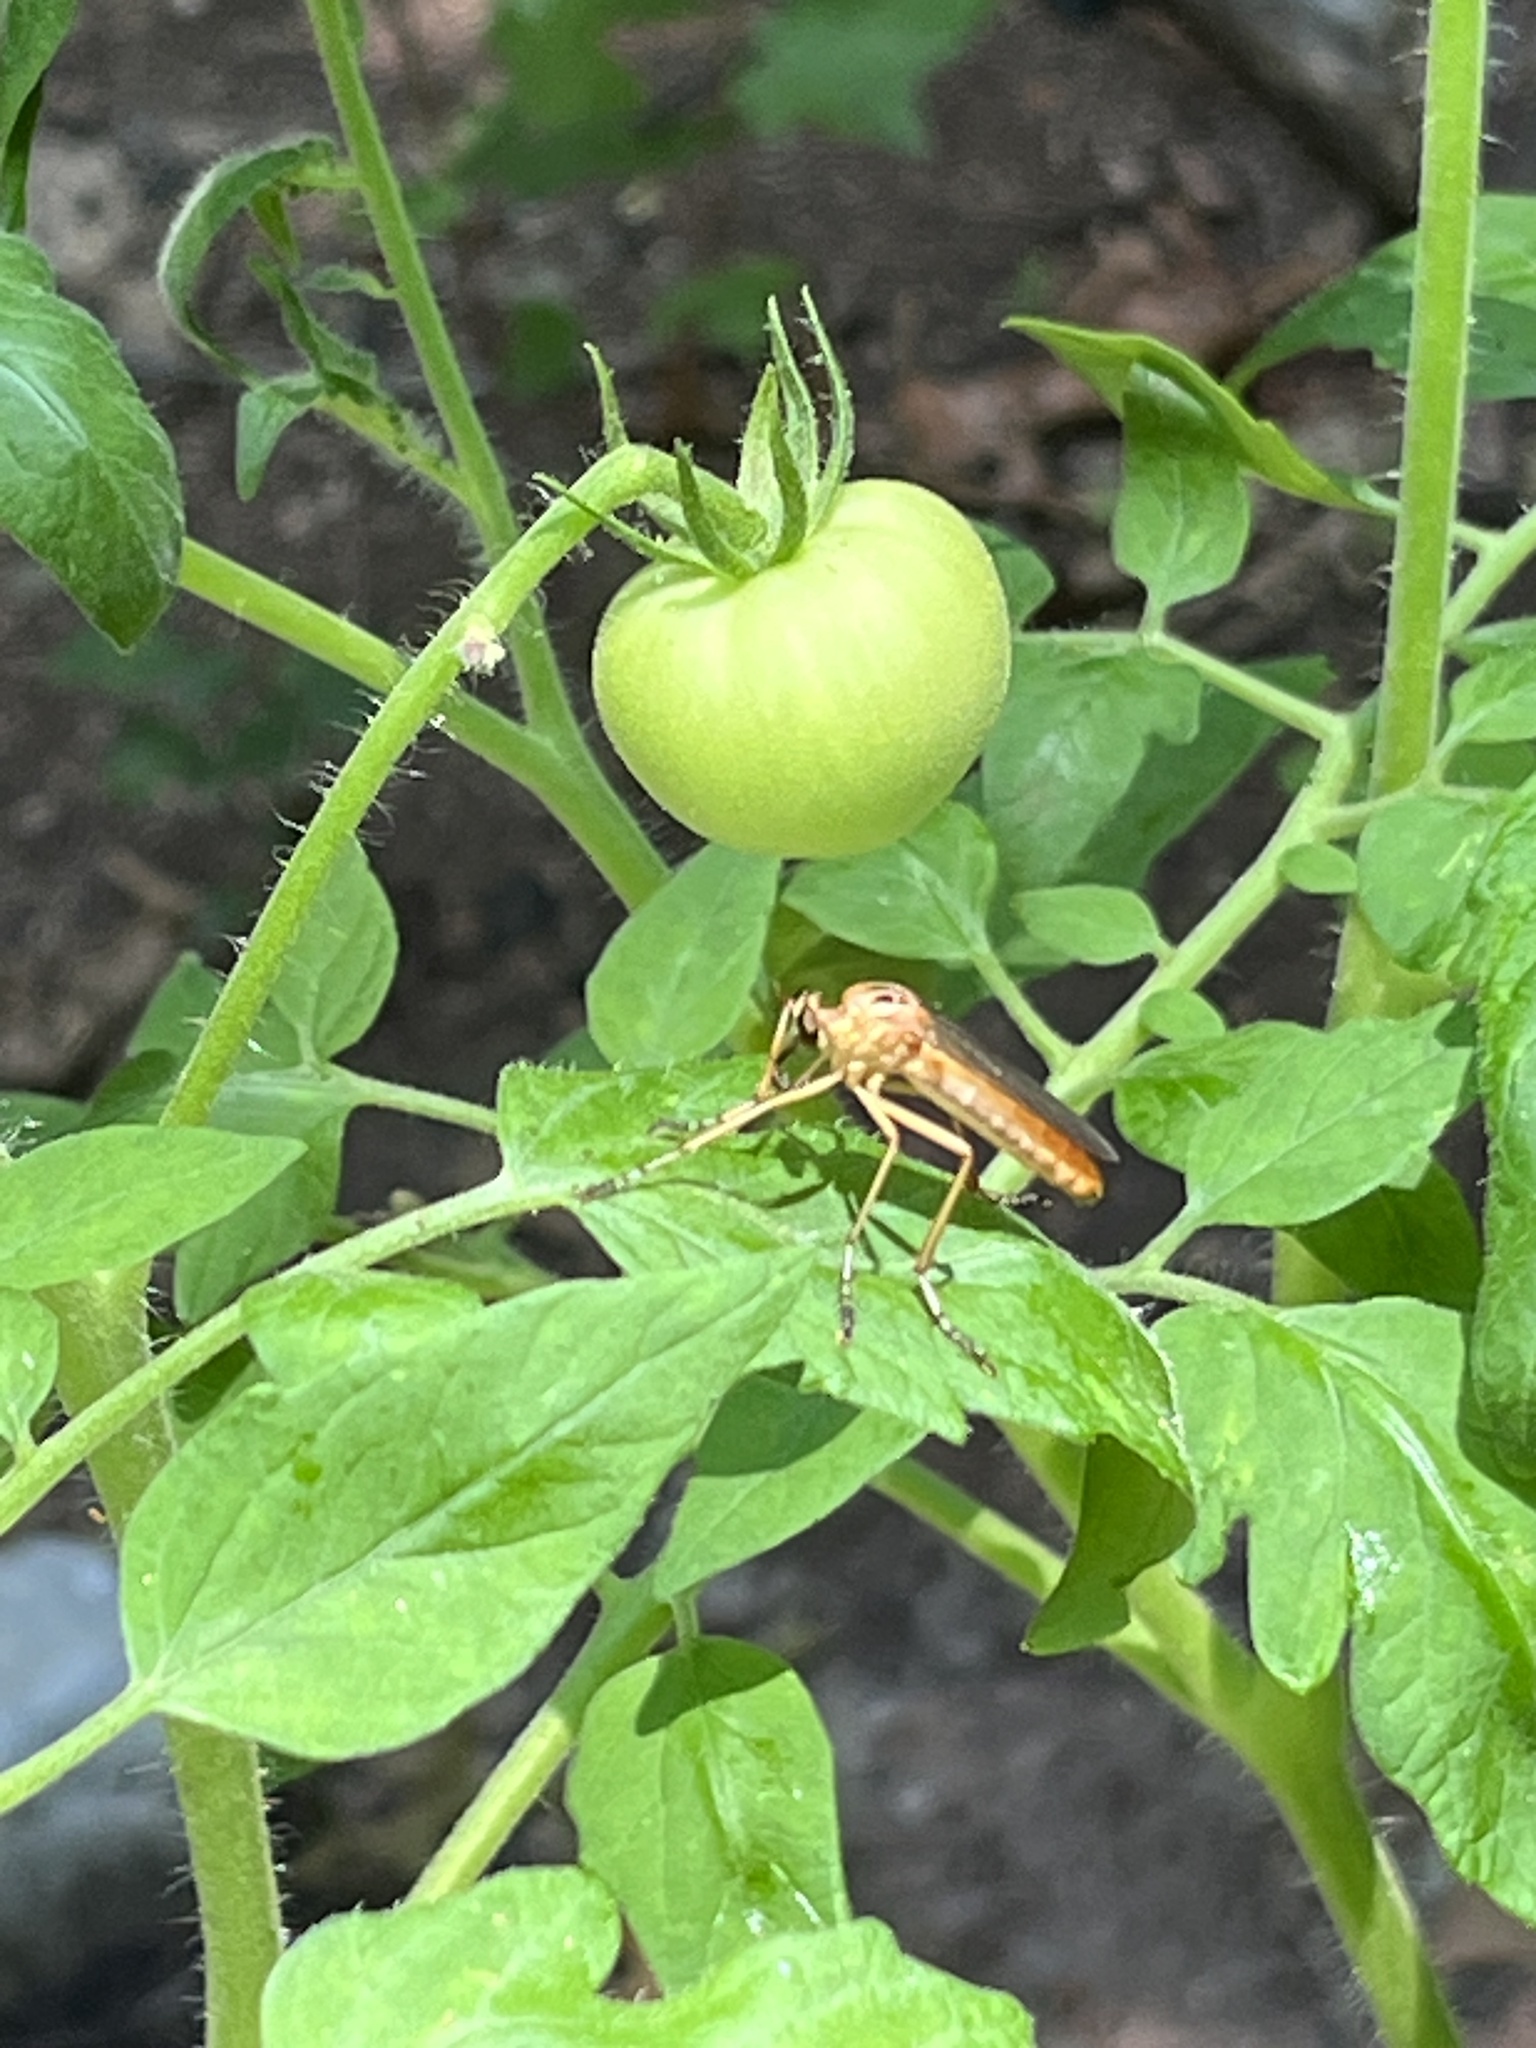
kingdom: Animalia
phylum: Arthropoda
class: Insecta
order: Diptera
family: Asilidae
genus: Diogmites
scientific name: Diogmites neoternatus
